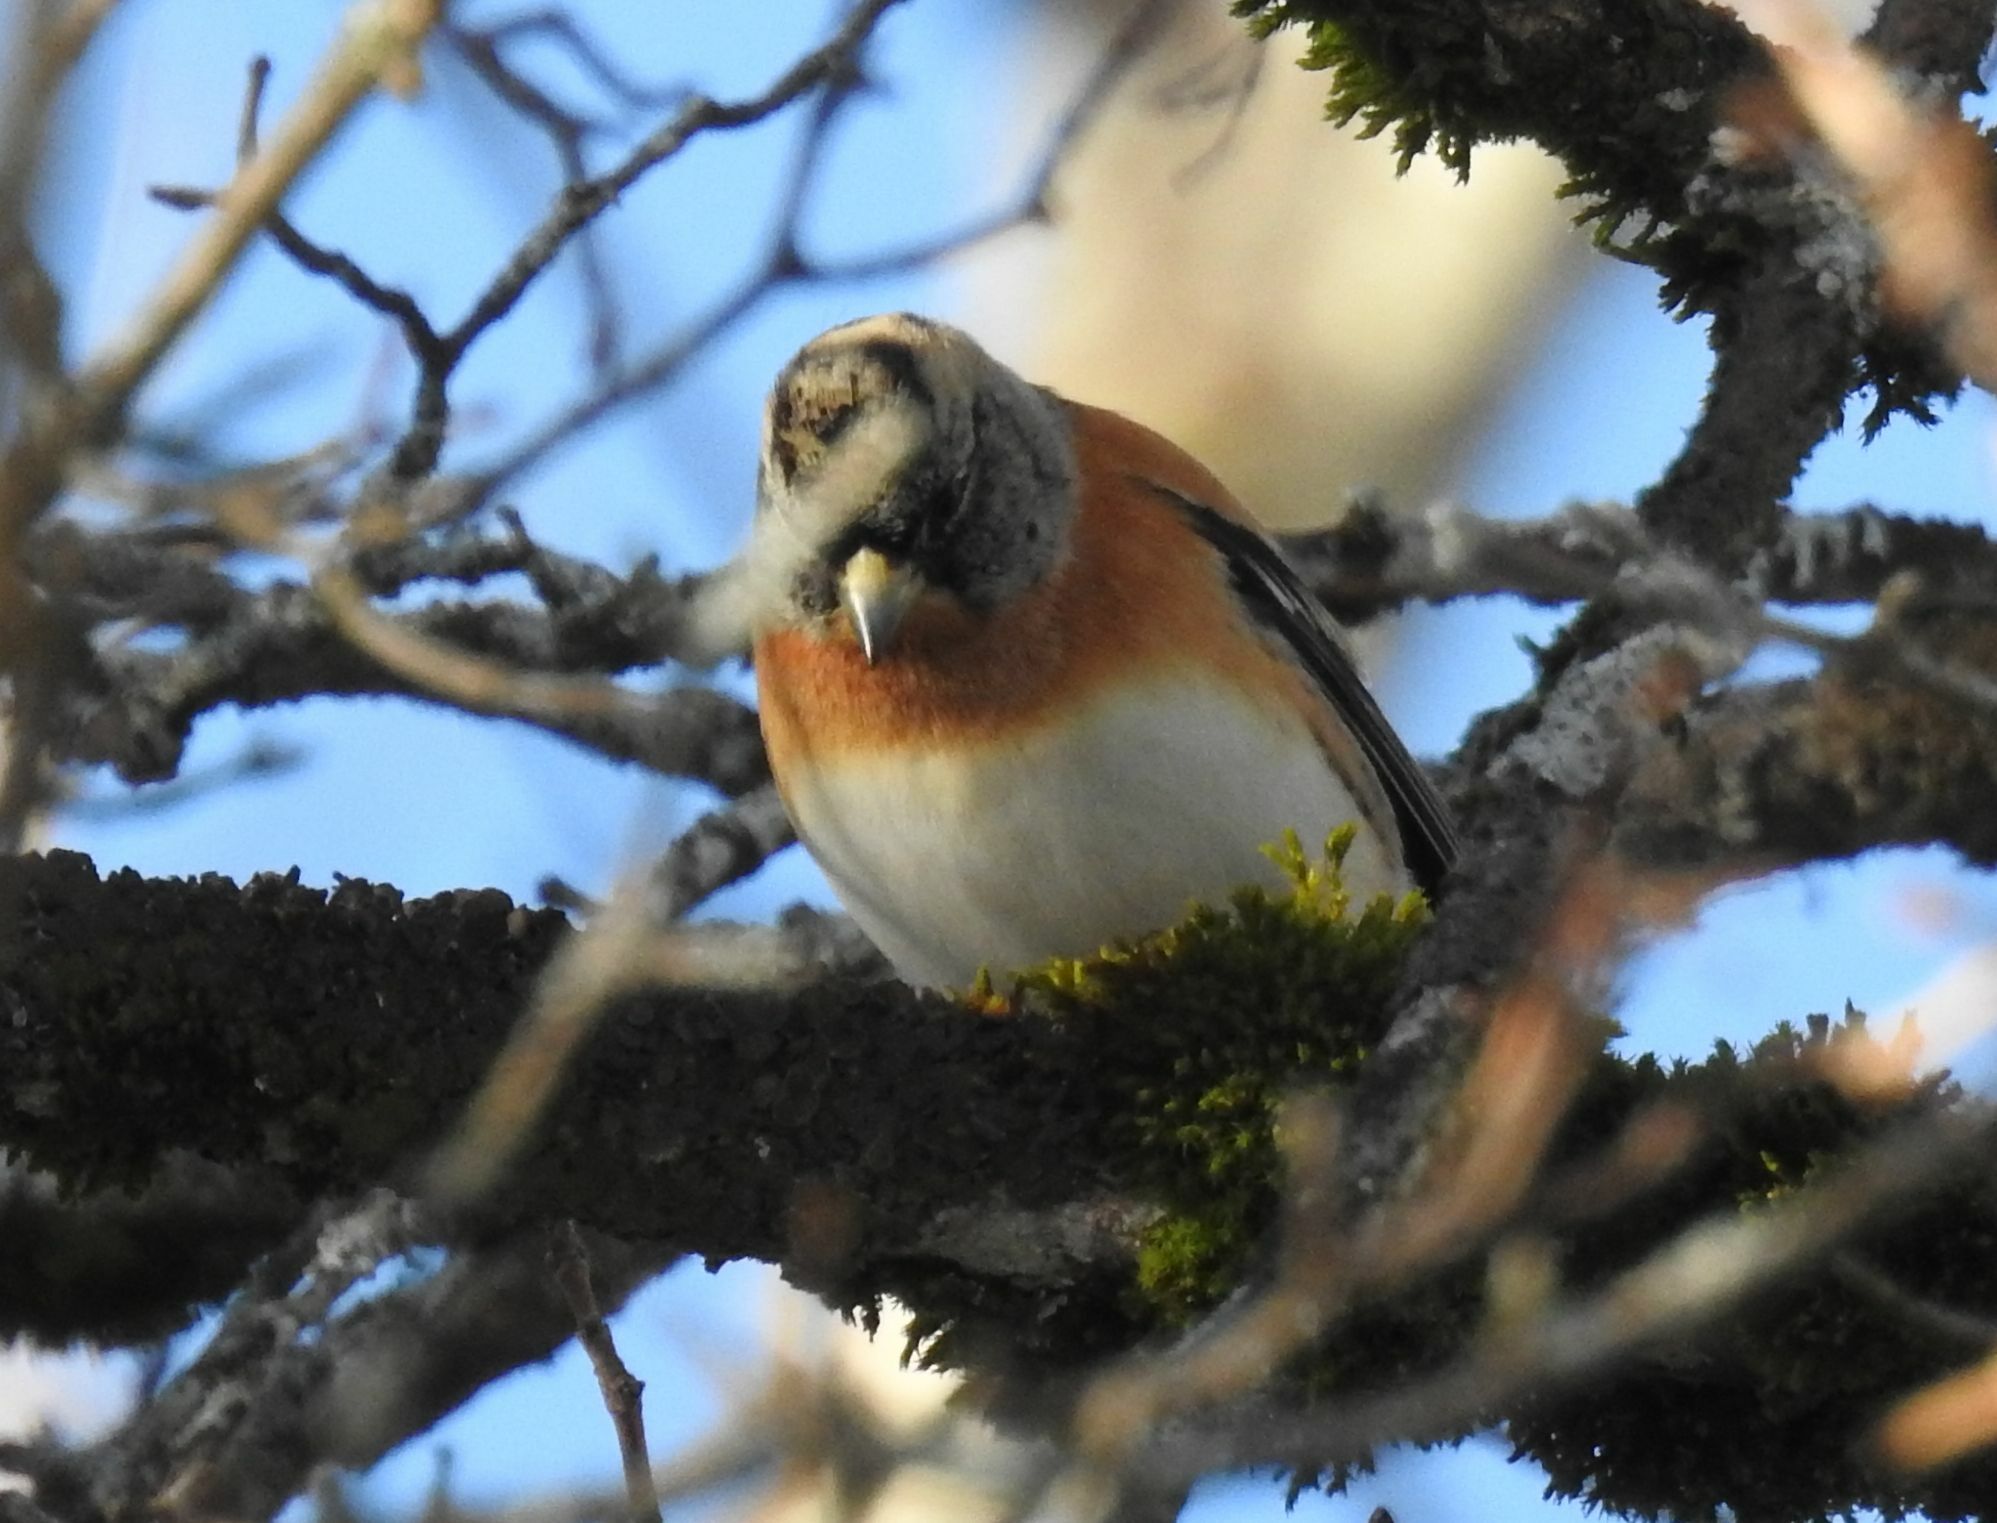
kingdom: Animalia
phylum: Chordata
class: Aves
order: Passeriformes
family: Fringillidae
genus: Fringilla
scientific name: Fringilla montifringilla
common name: Brambling
